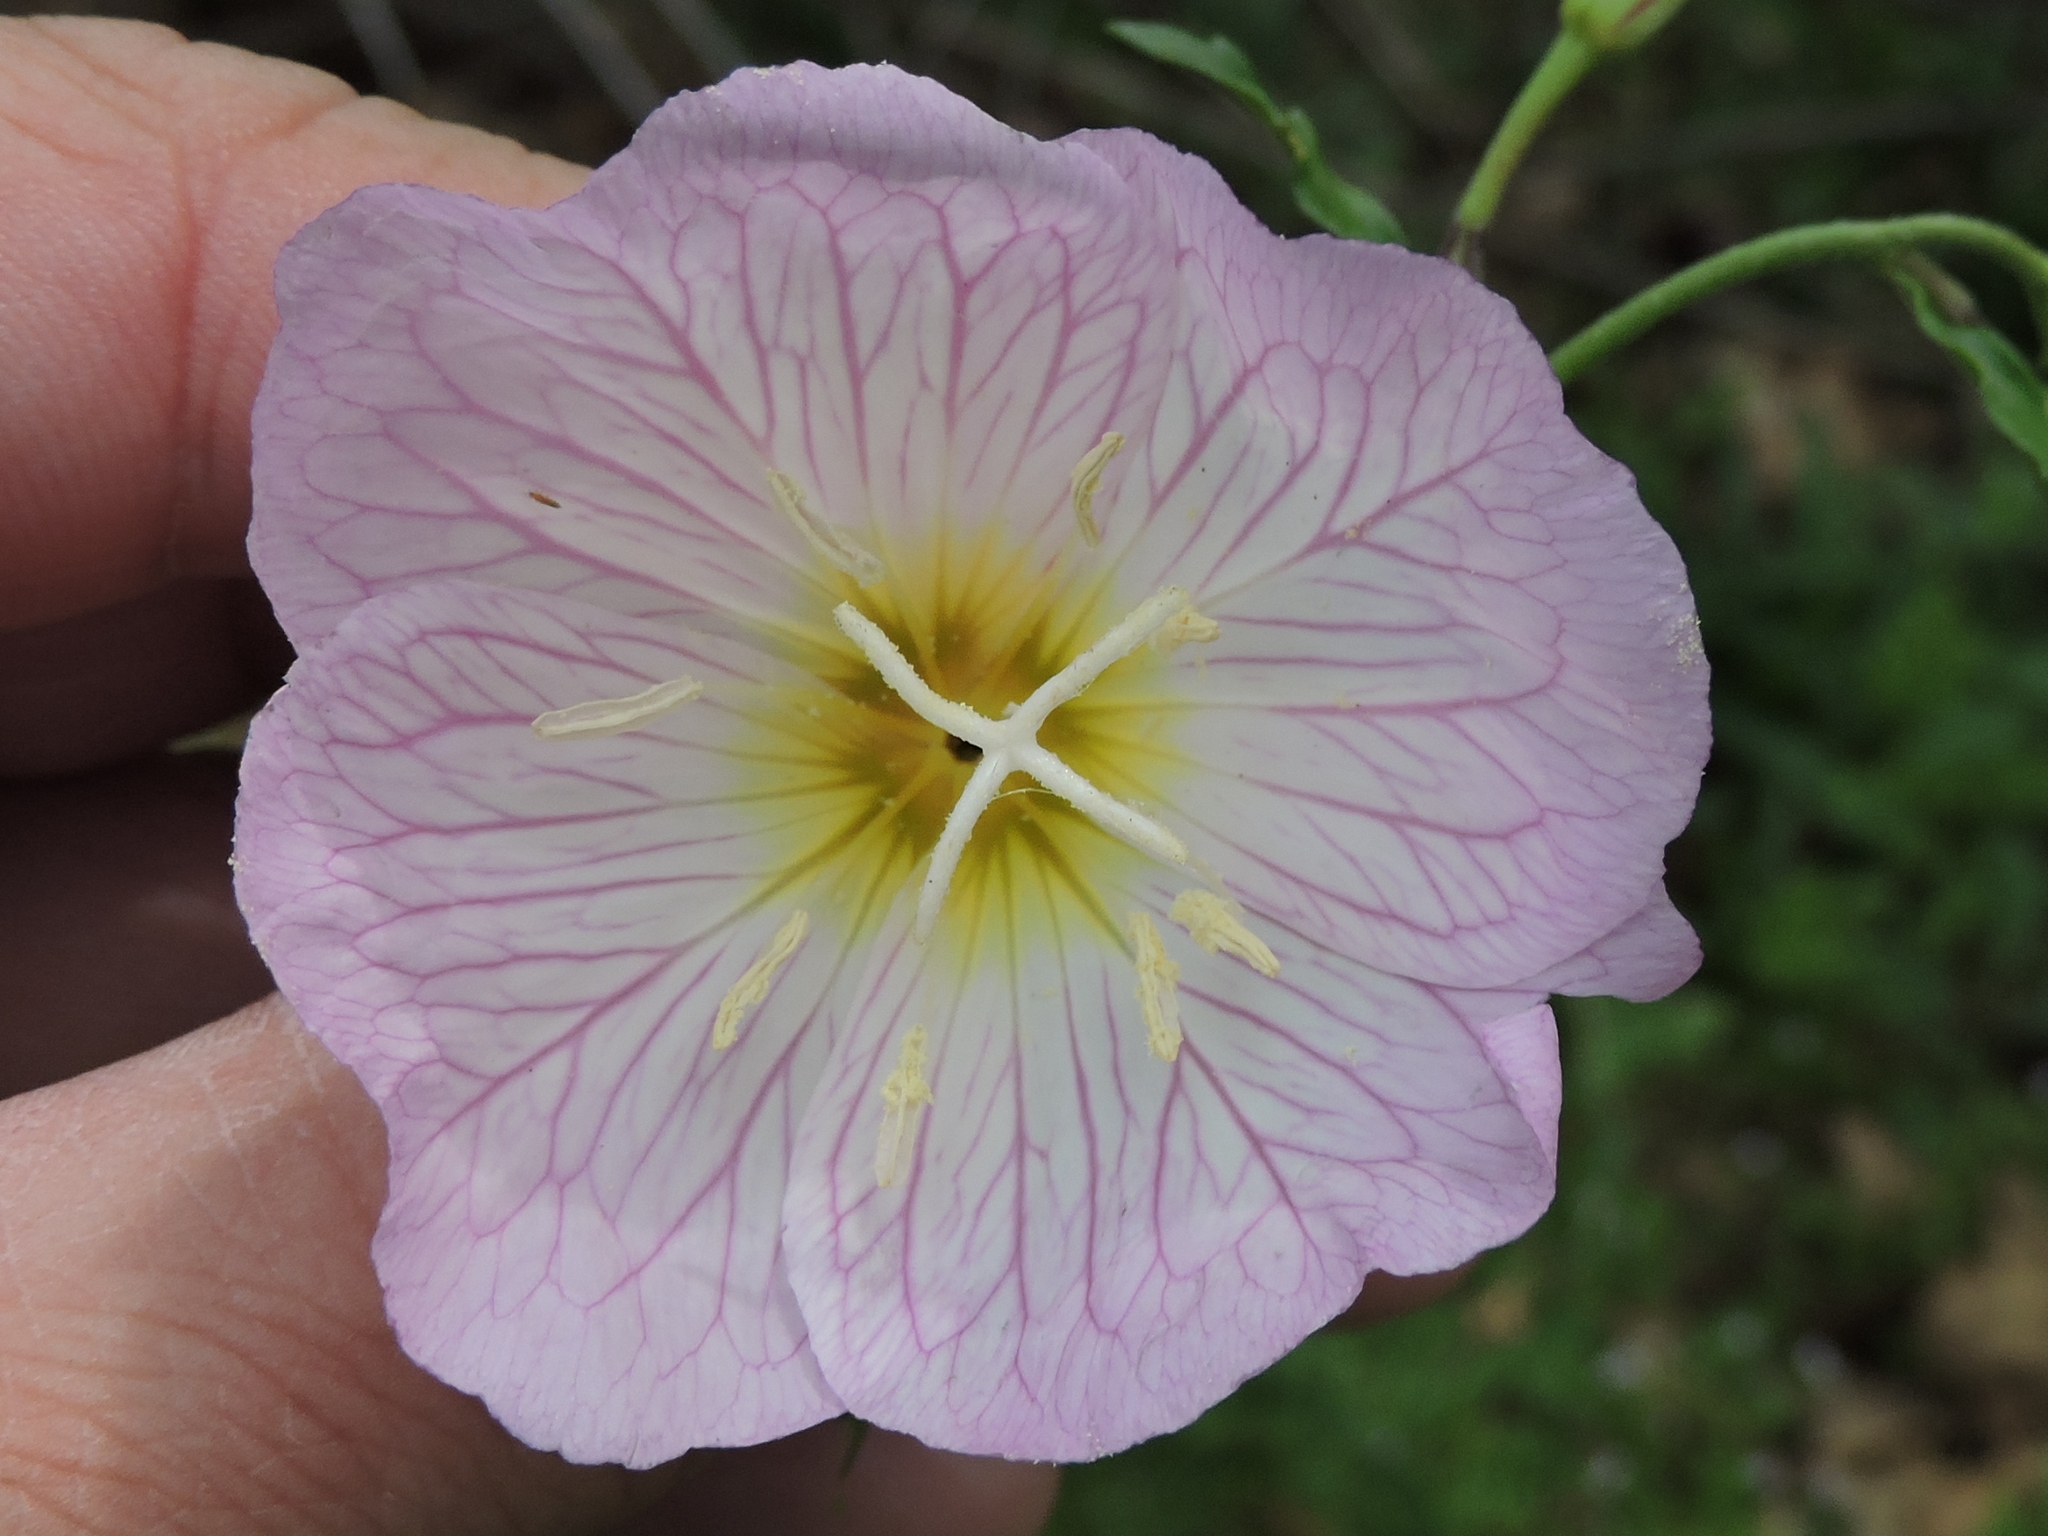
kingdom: Plantae
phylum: Tracheophyta
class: Magnoliopsida
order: Myrtales
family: Onagraceae
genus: Oenothera
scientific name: Oenothera speciosa
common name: White evening-primrose
